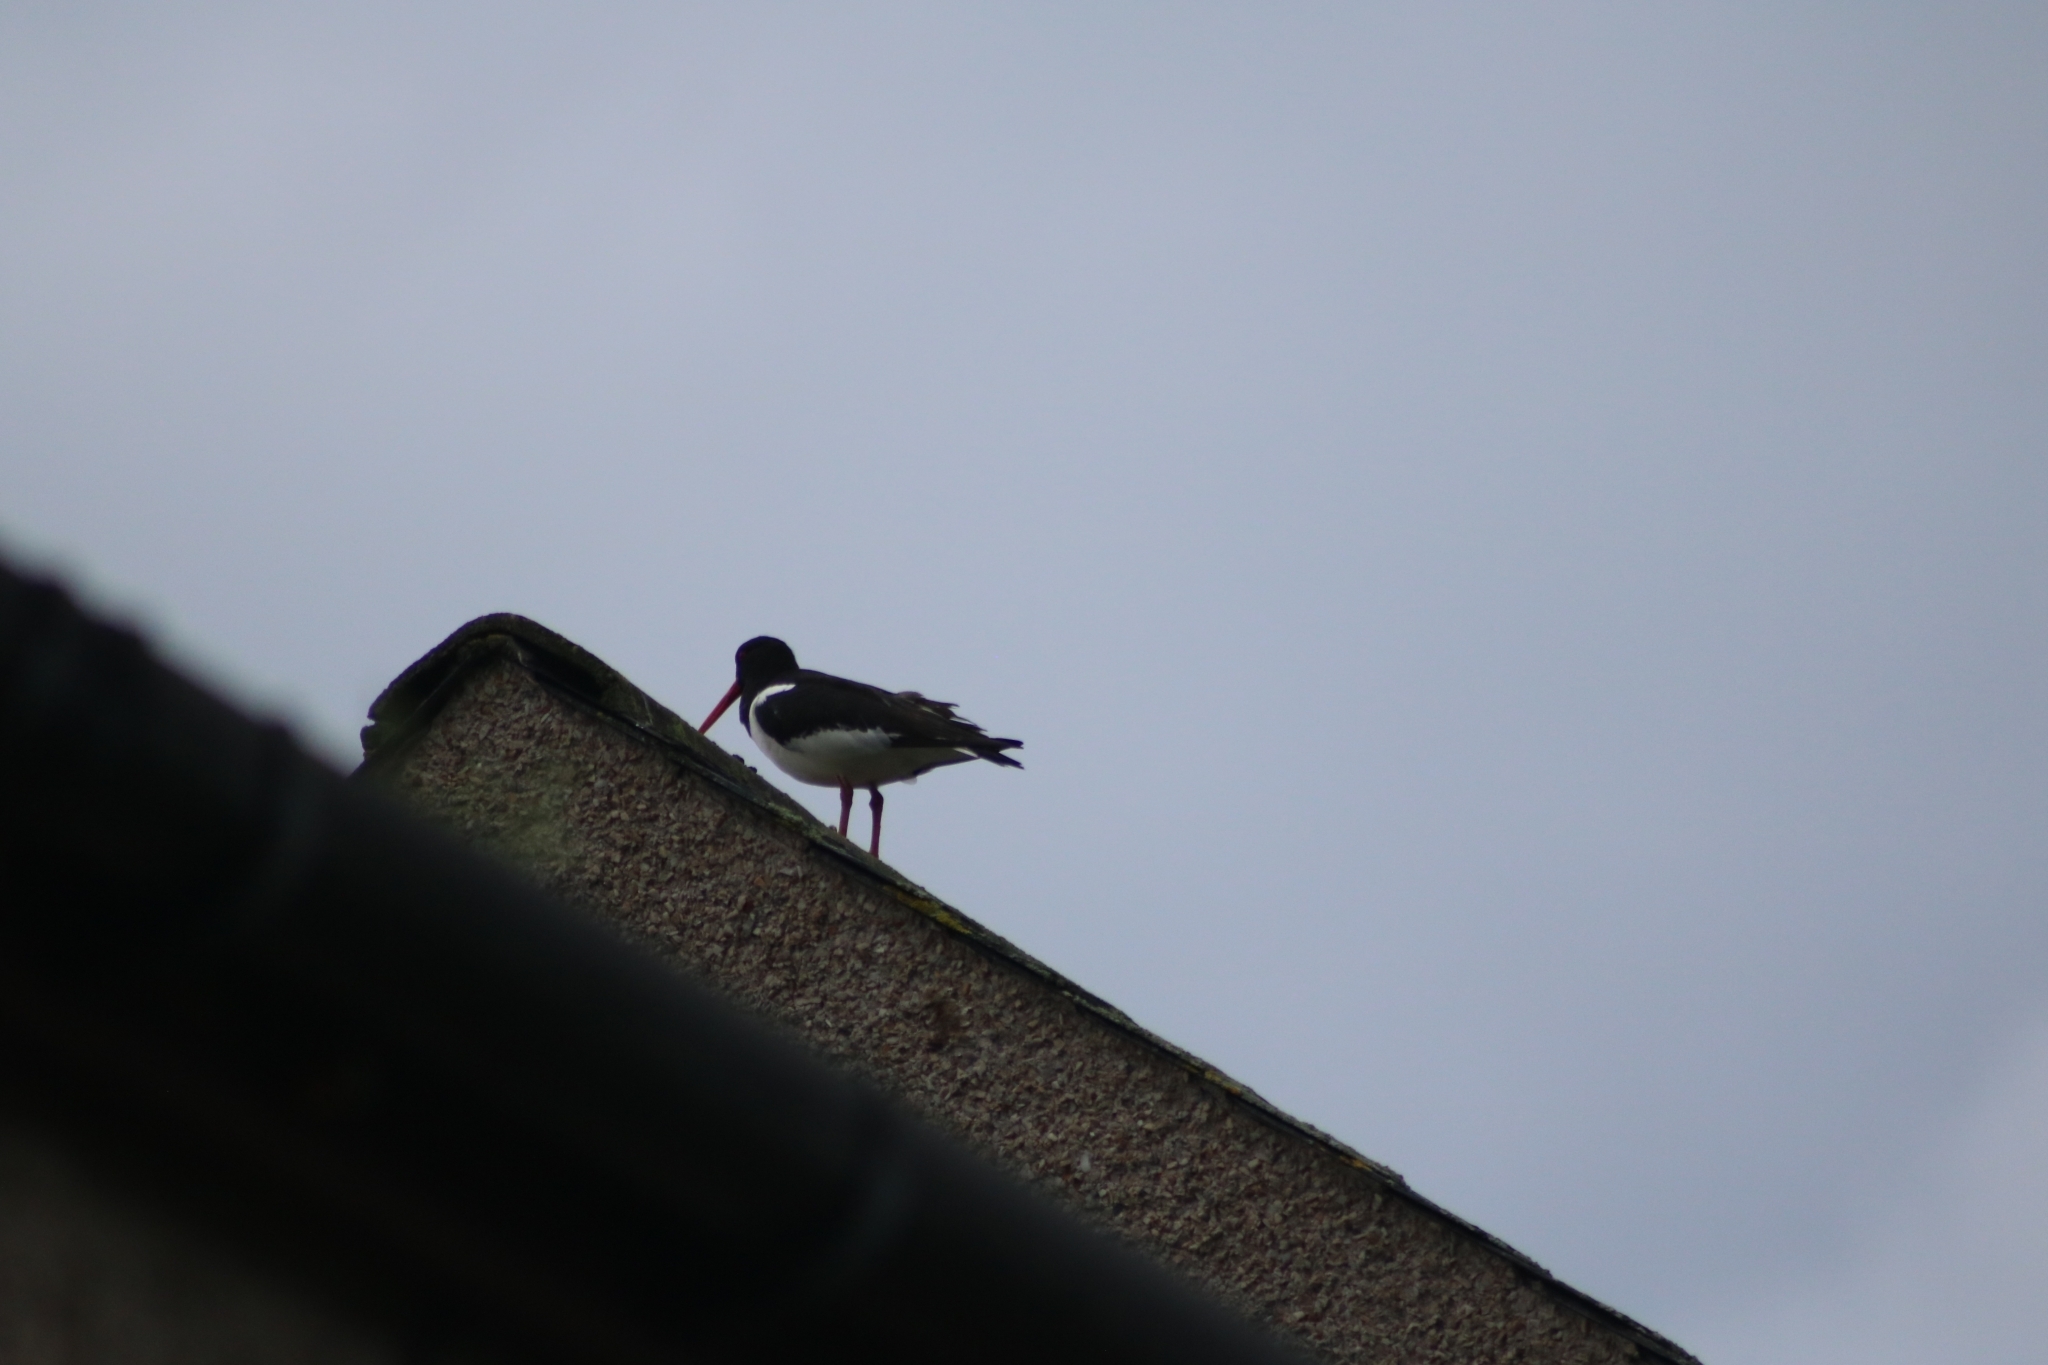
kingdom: Animalia
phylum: Chordata
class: Aves
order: Charadriiformes
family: Haematopodidae
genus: Haematopus
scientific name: Haematopus ostralegus
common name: Eurasian oystercatcher
